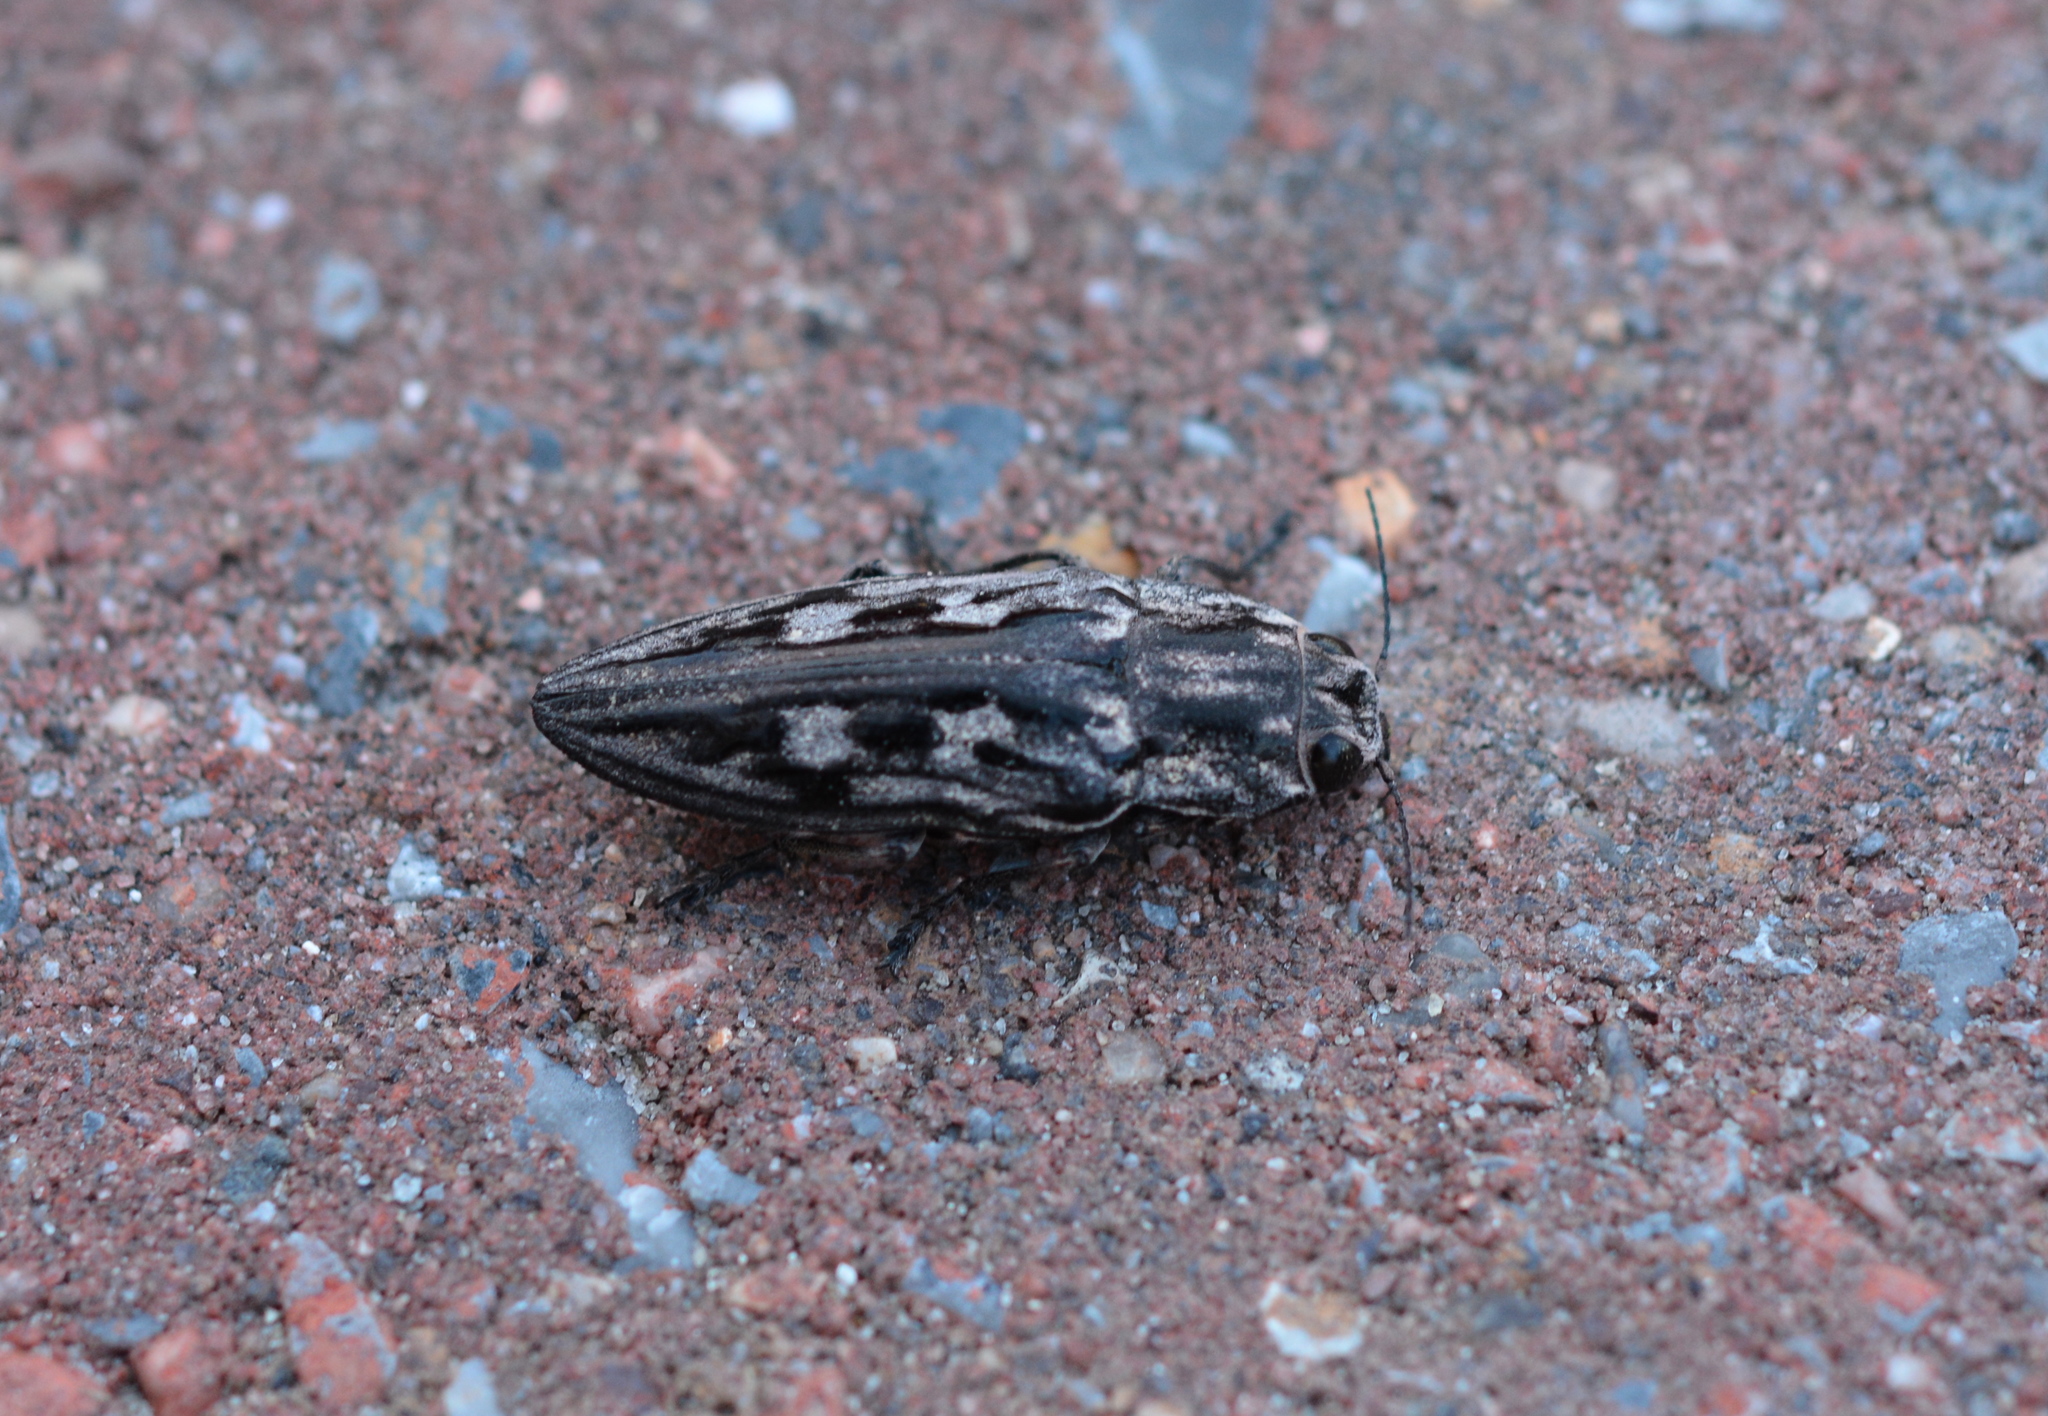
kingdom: Animalia
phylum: Arthropoda
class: Insecta
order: Coleoptera
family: Buprestidae
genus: Chalcophora
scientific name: Chalcophora virginiensis
